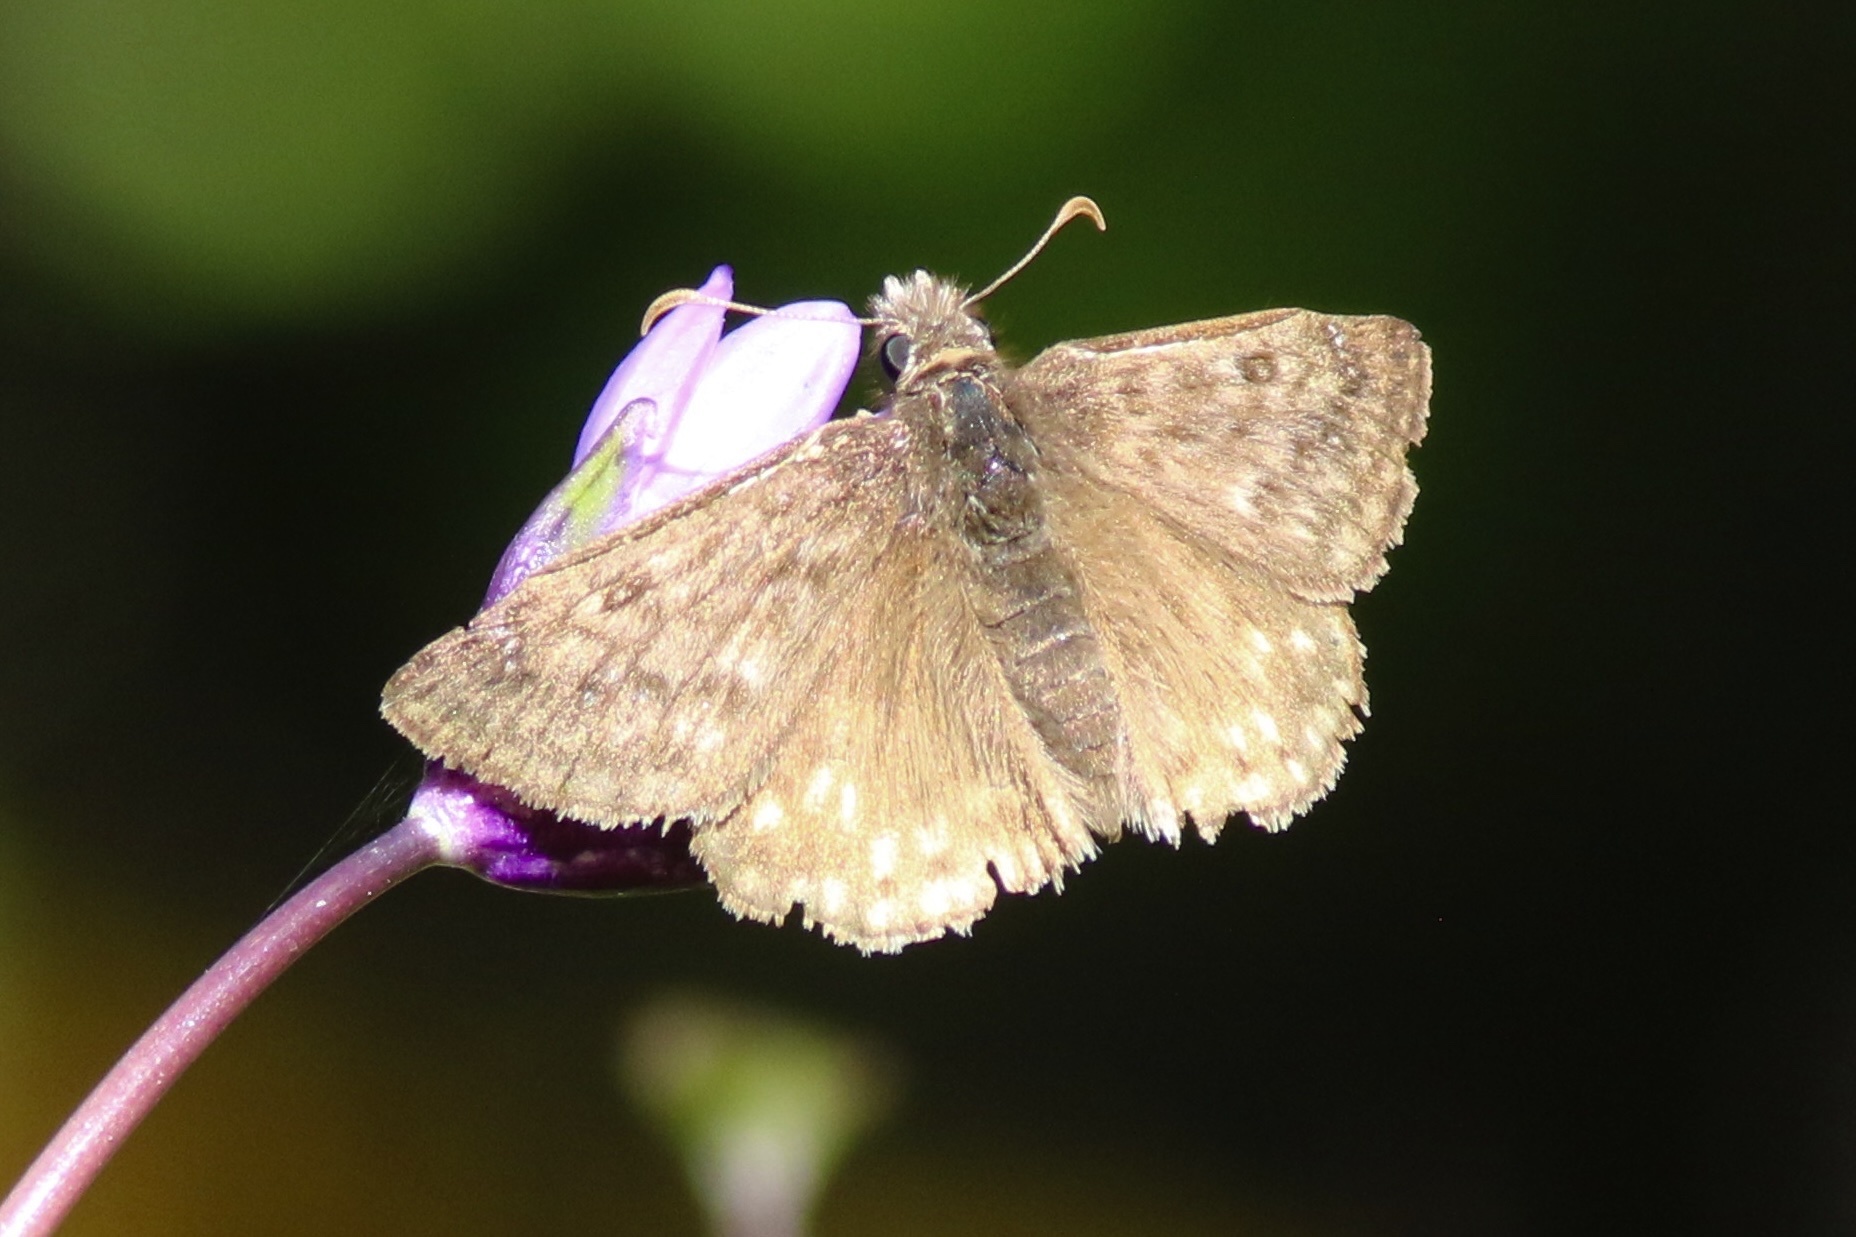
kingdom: Animalia
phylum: Arthropoda
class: Insecta
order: Lepidoptera
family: Hesperiidae
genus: Erynnis
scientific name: Erynnis propertius
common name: Propertius duskywing
